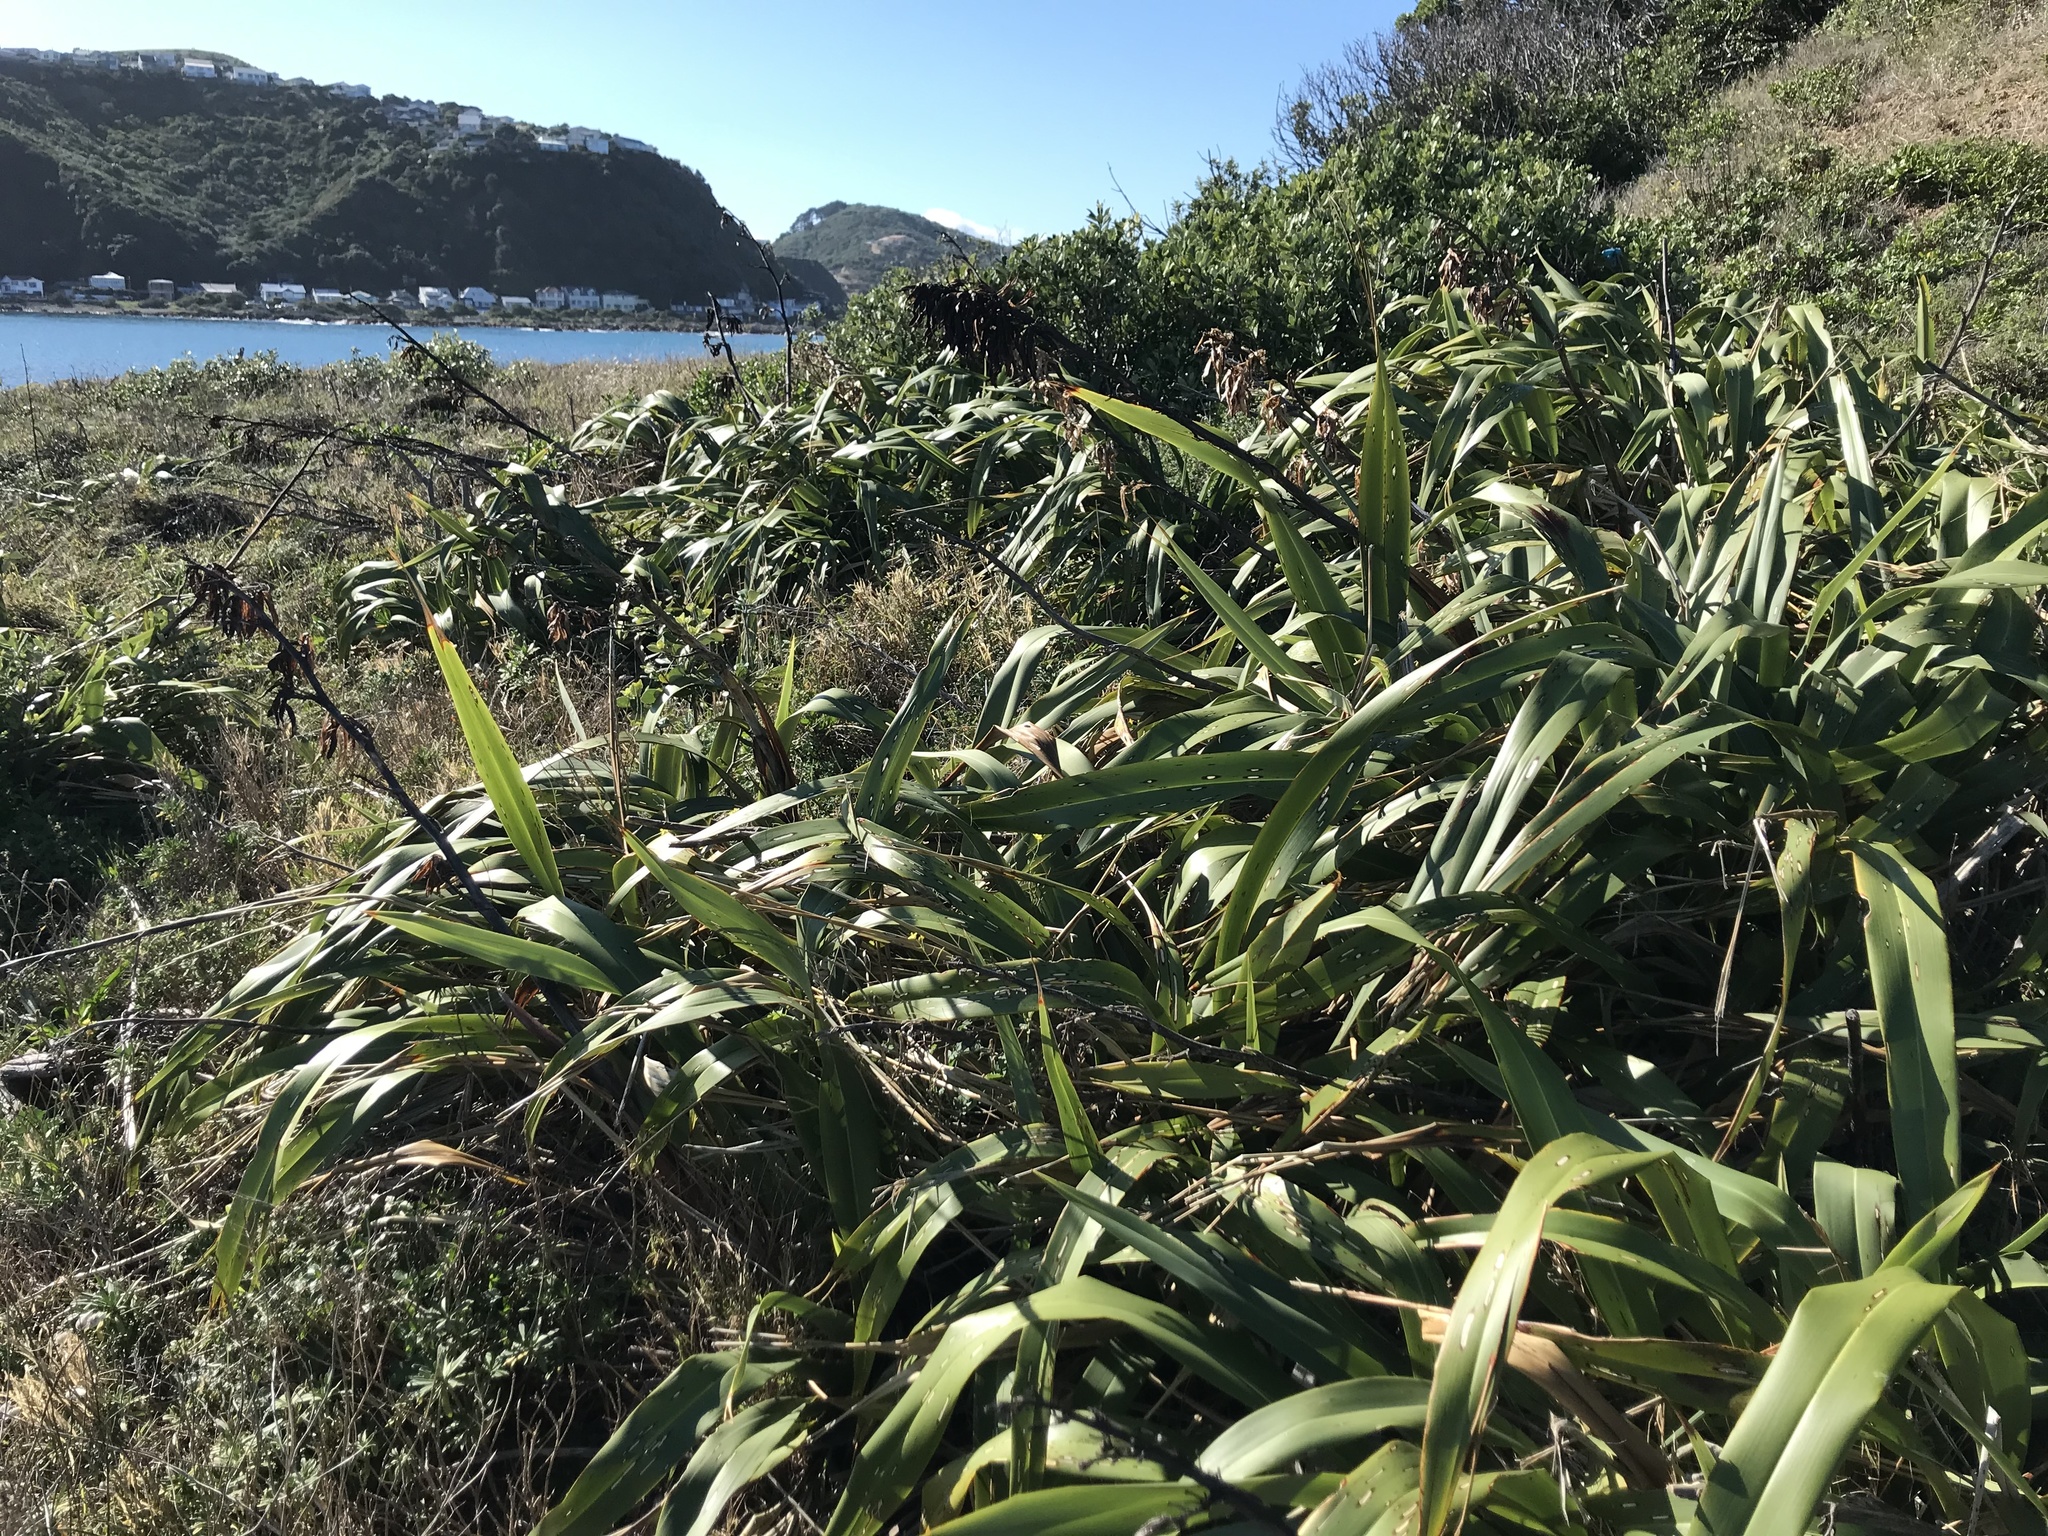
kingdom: Plantae
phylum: Tracheophyta
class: Liliopsida
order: Asparagales
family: Asphodelaceae
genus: Phormium
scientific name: Phormium colensoi
